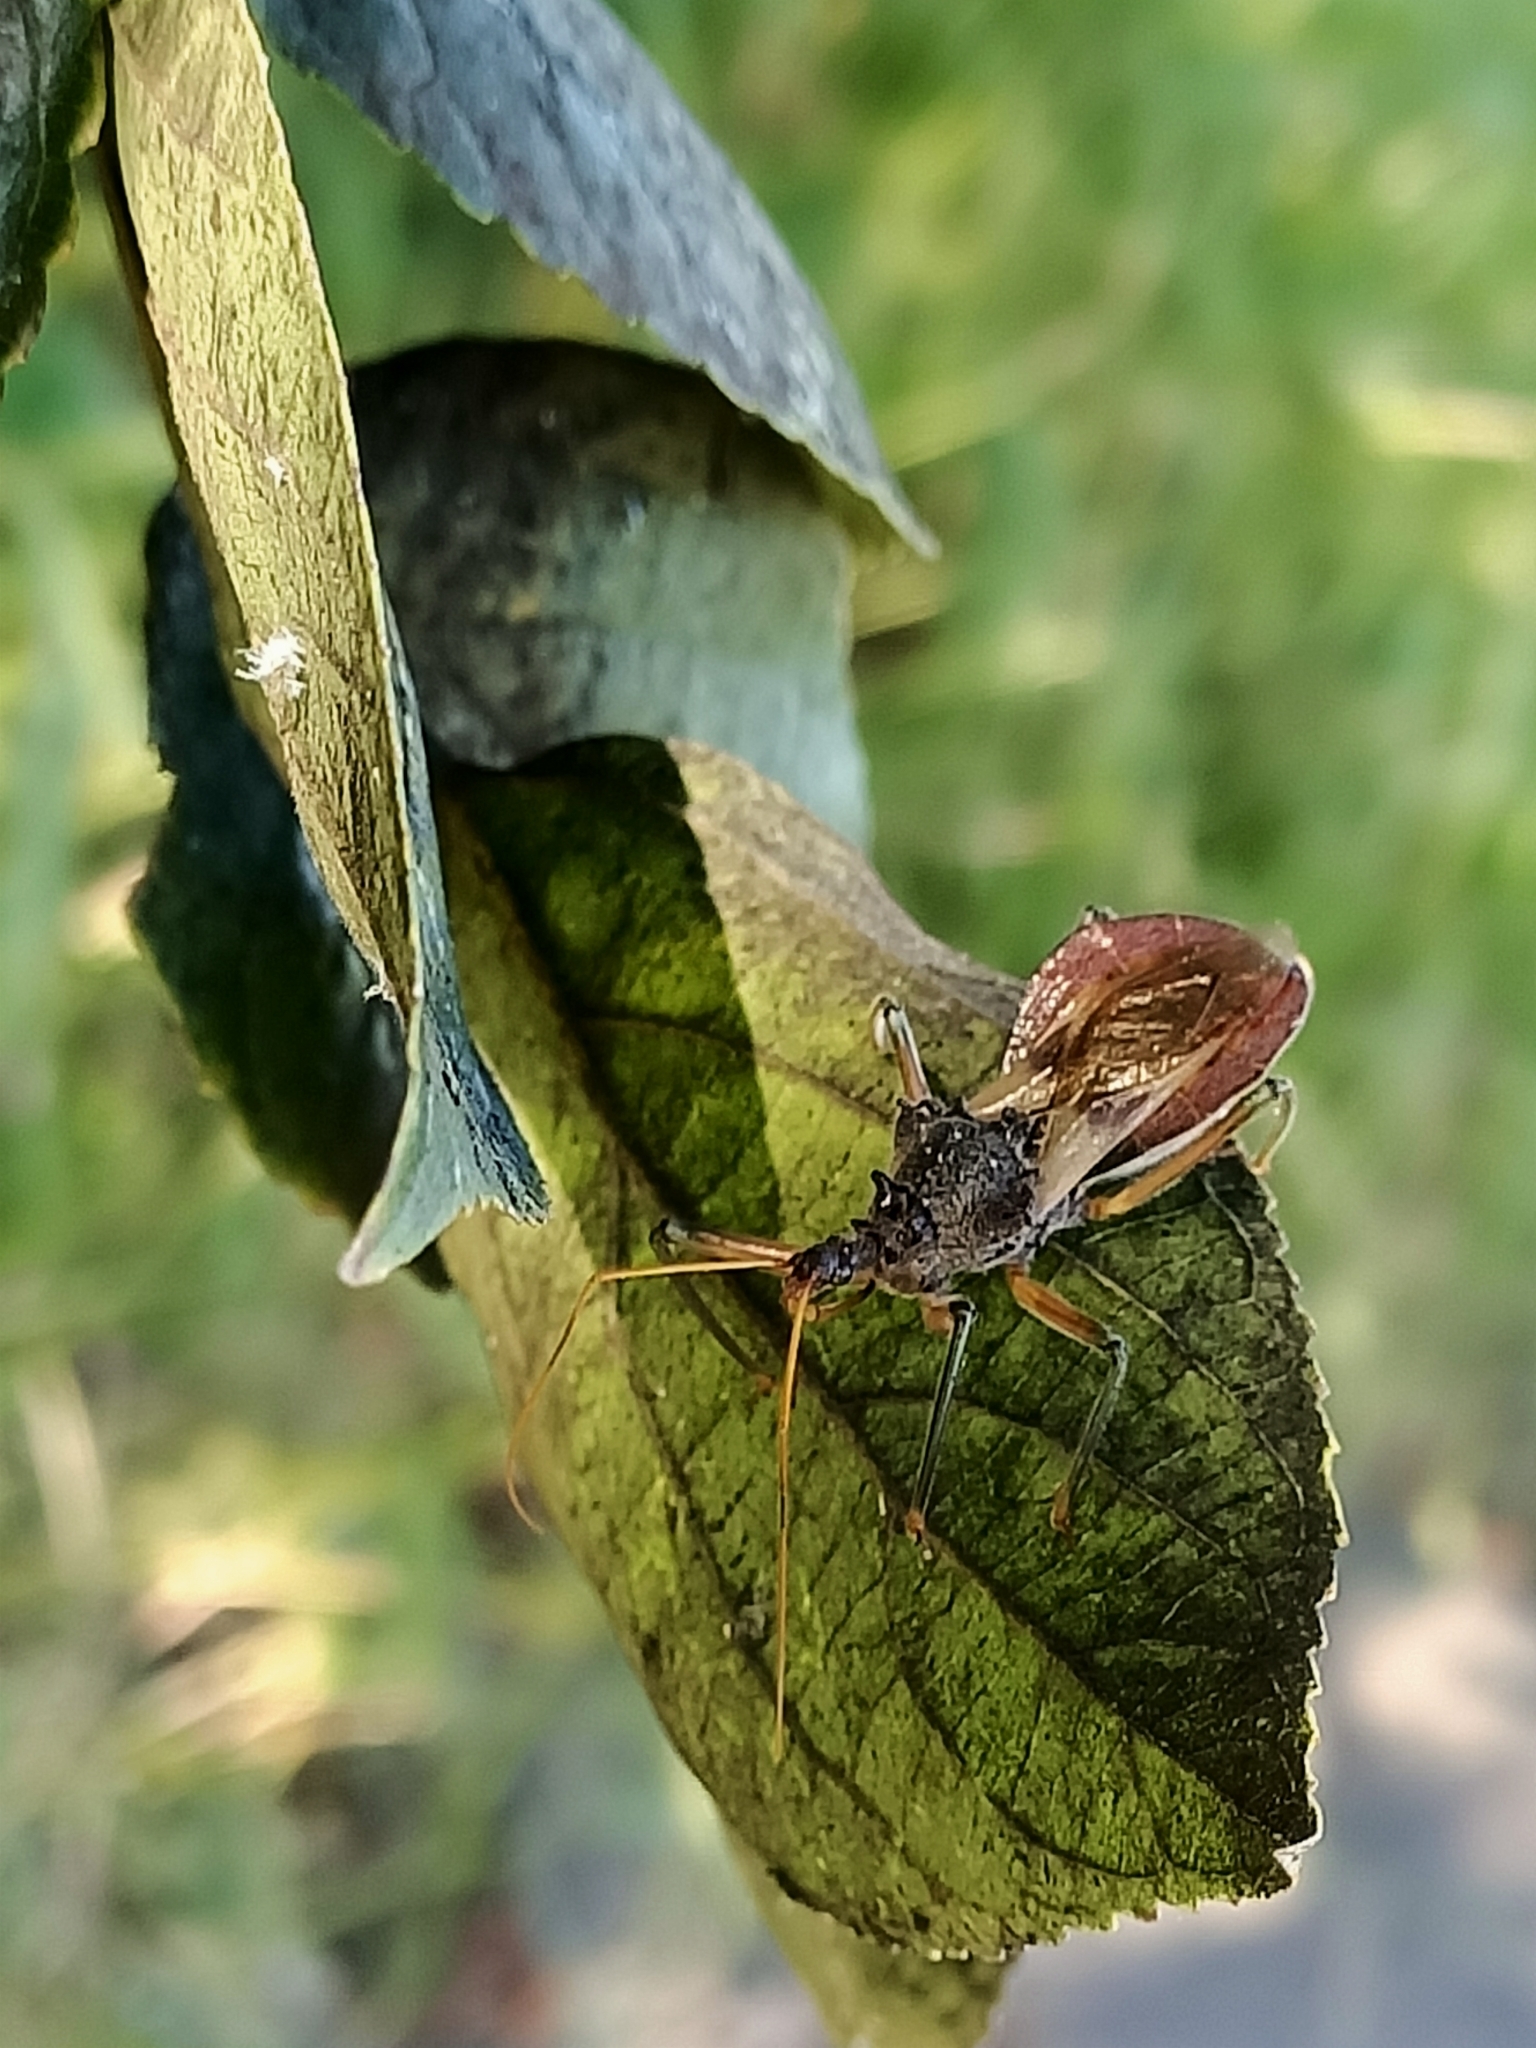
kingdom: Animalia
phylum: Arthropoda
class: Insecta
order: Hemiptera
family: Reduviidae
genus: Pristhesancus
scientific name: Pristhesancus plagipennis
